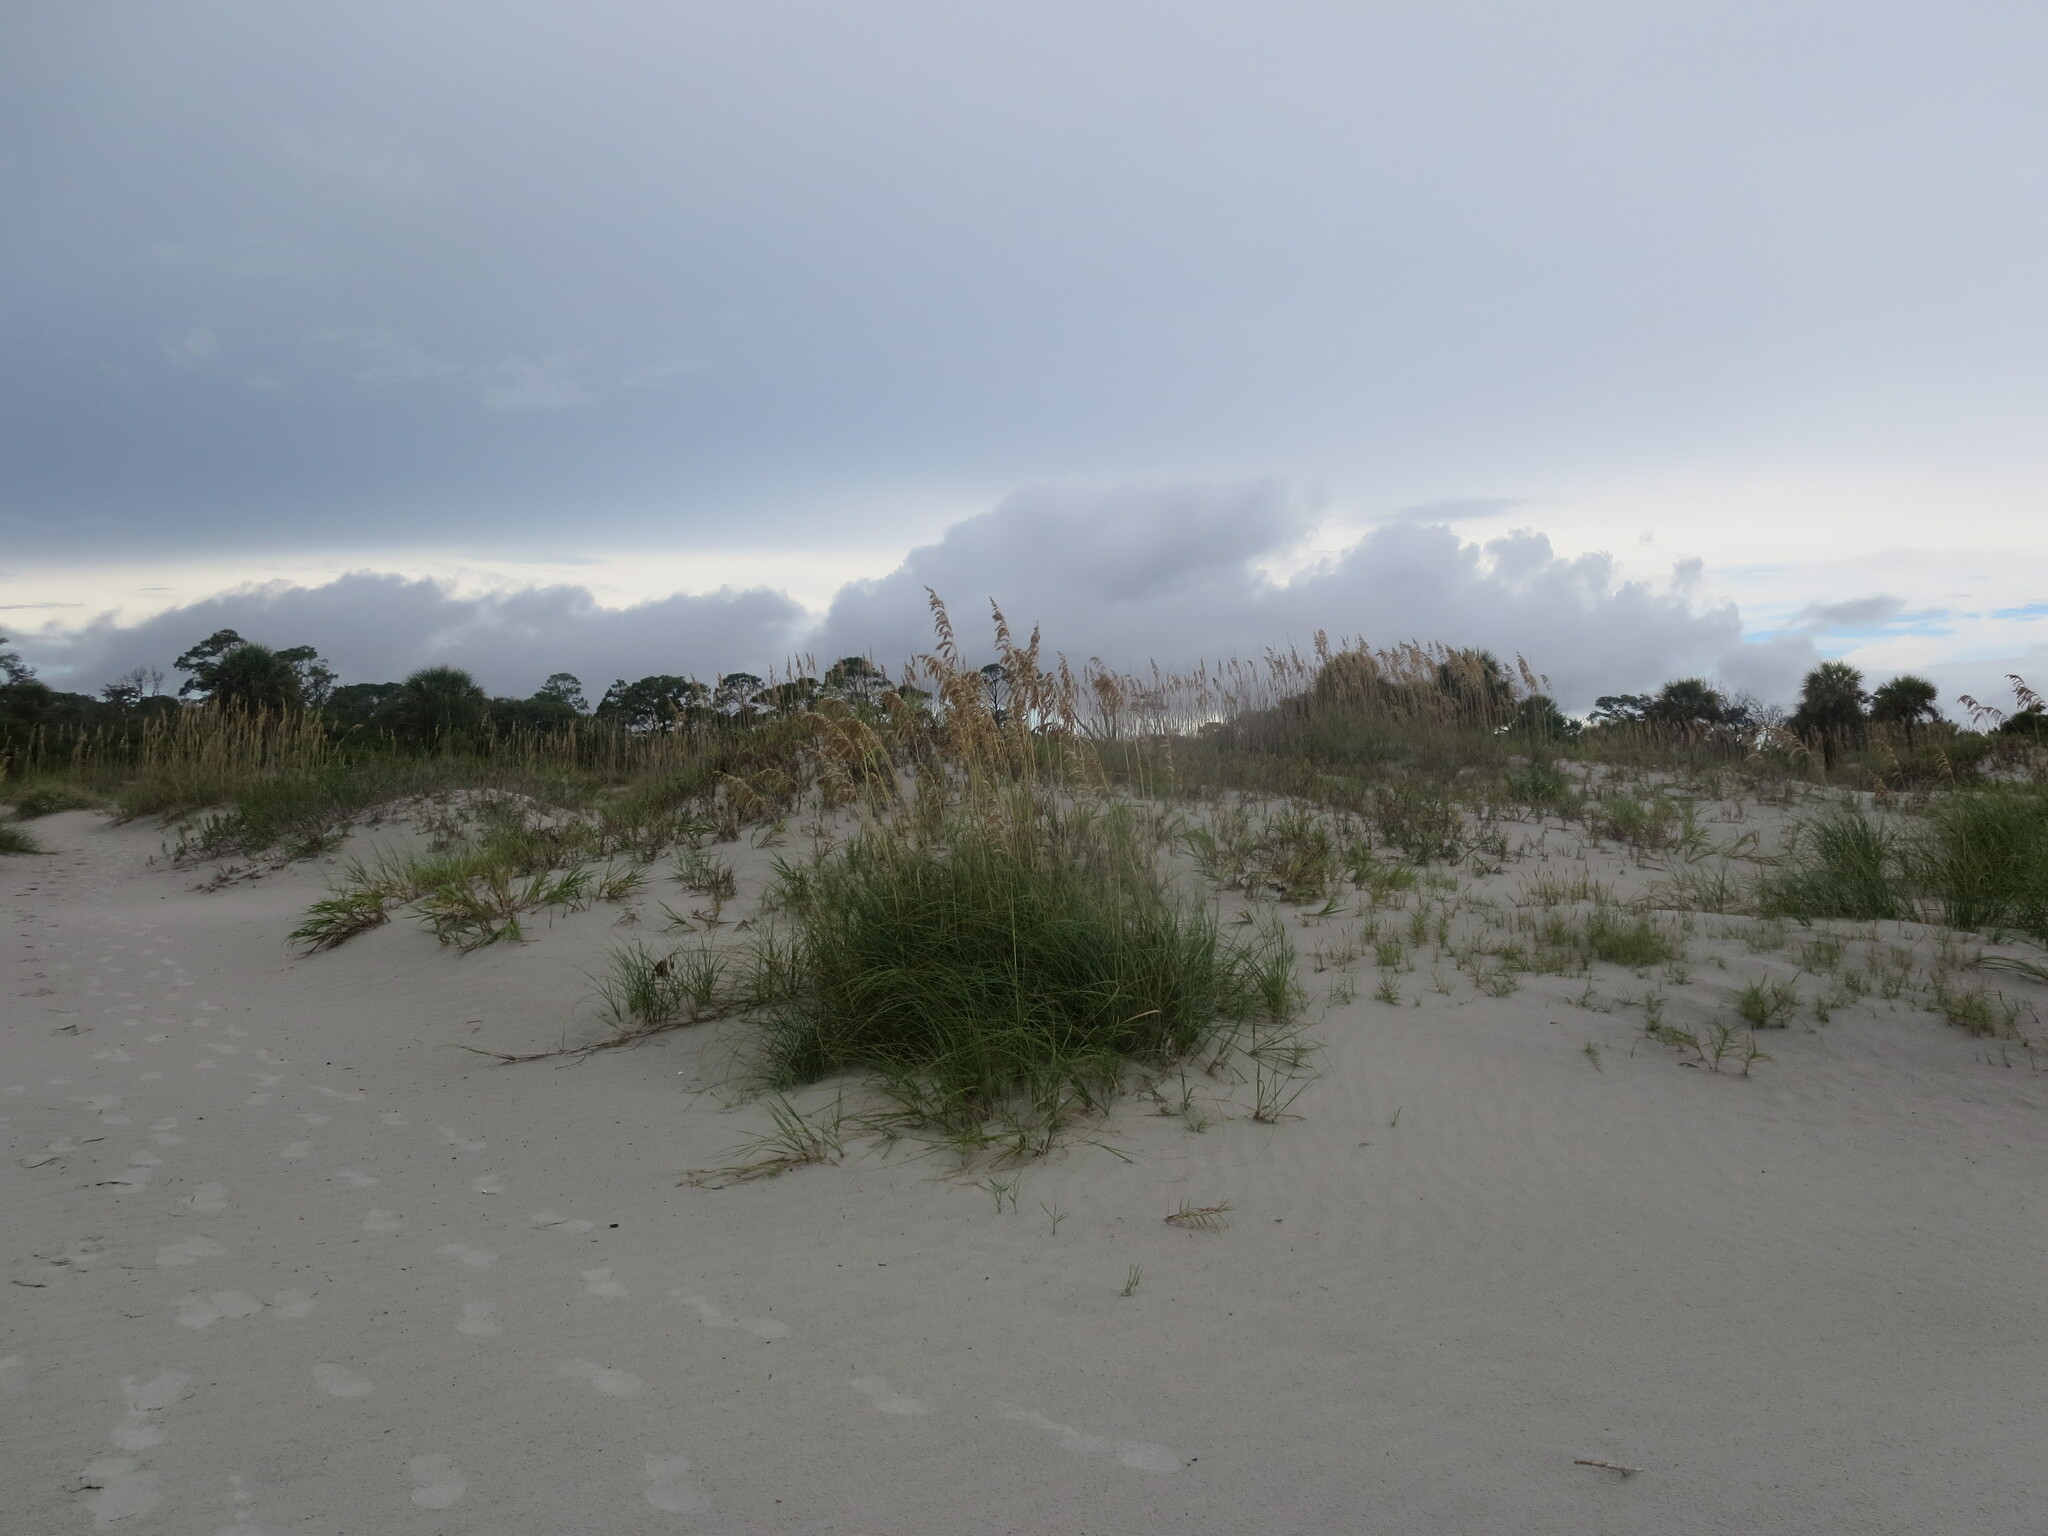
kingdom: Plantae
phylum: Tracheophyta
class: Liliopsida
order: Poales
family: Poaceae
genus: Uniola
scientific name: Uniola paniculata
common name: Seaside-oats
